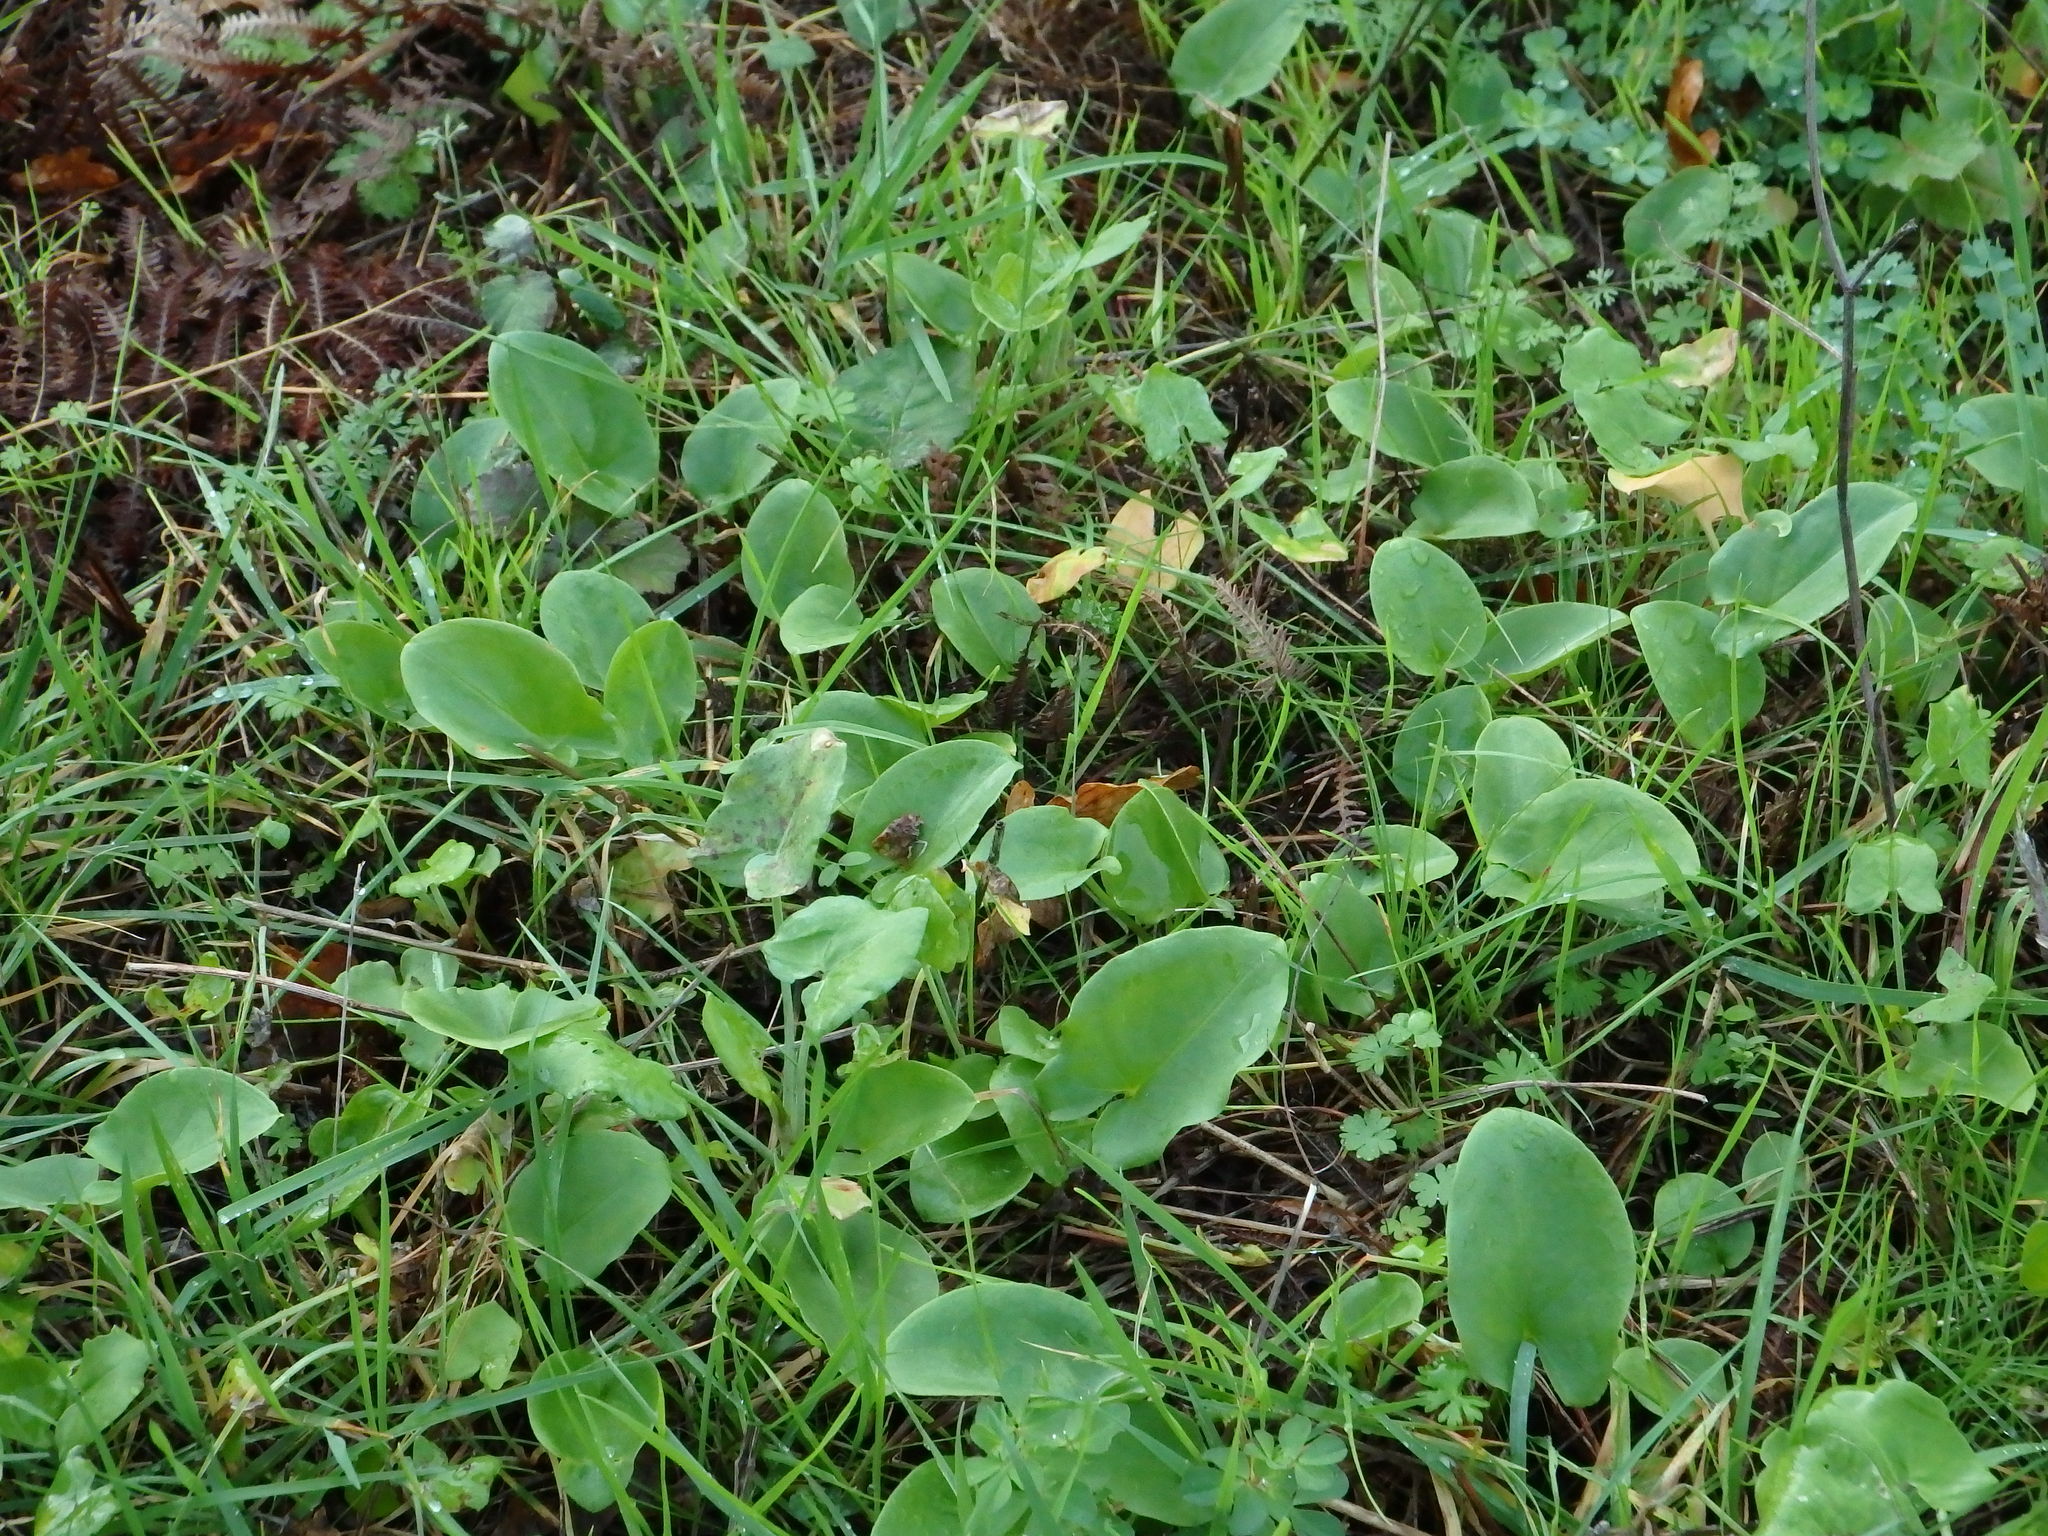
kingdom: Plantae
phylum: Tracheophyta
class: Liliopsida
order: Alismatales
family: Araceae
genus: Arisarum
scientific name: Arisarum simorrhinum
